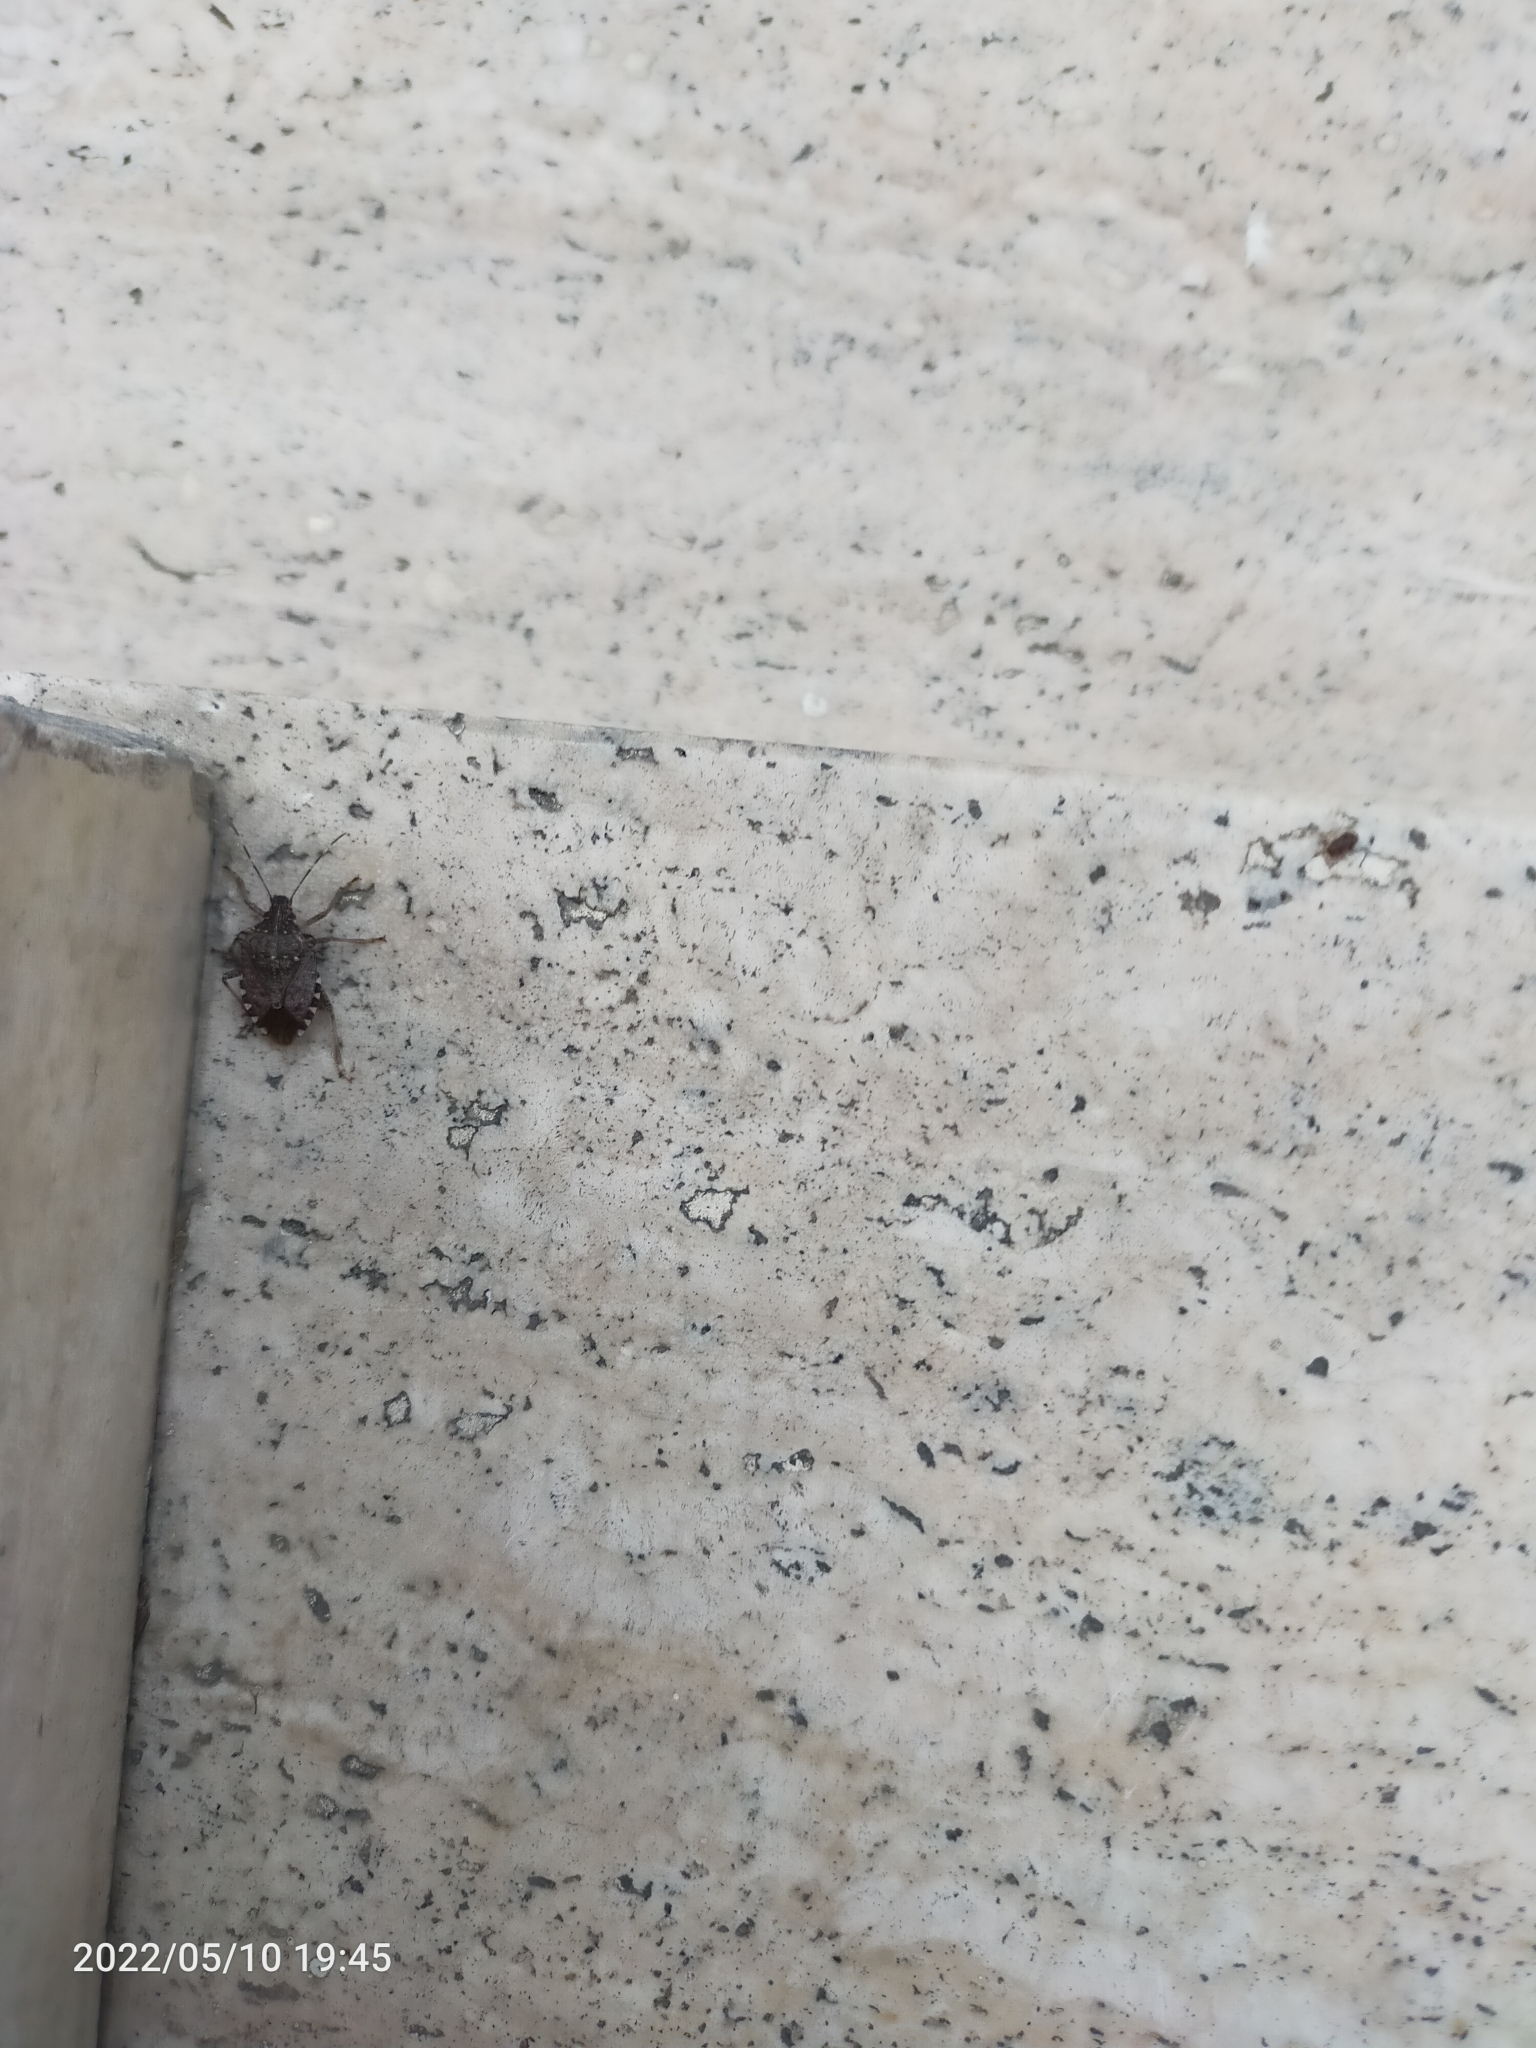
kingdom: Animalia
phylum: Arthropoda
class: Insecta
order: Hemiptera
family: Pentatomidae
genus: Halyomorpha
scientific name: Halyomorpha halys
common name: Brown marmorated stink bug
